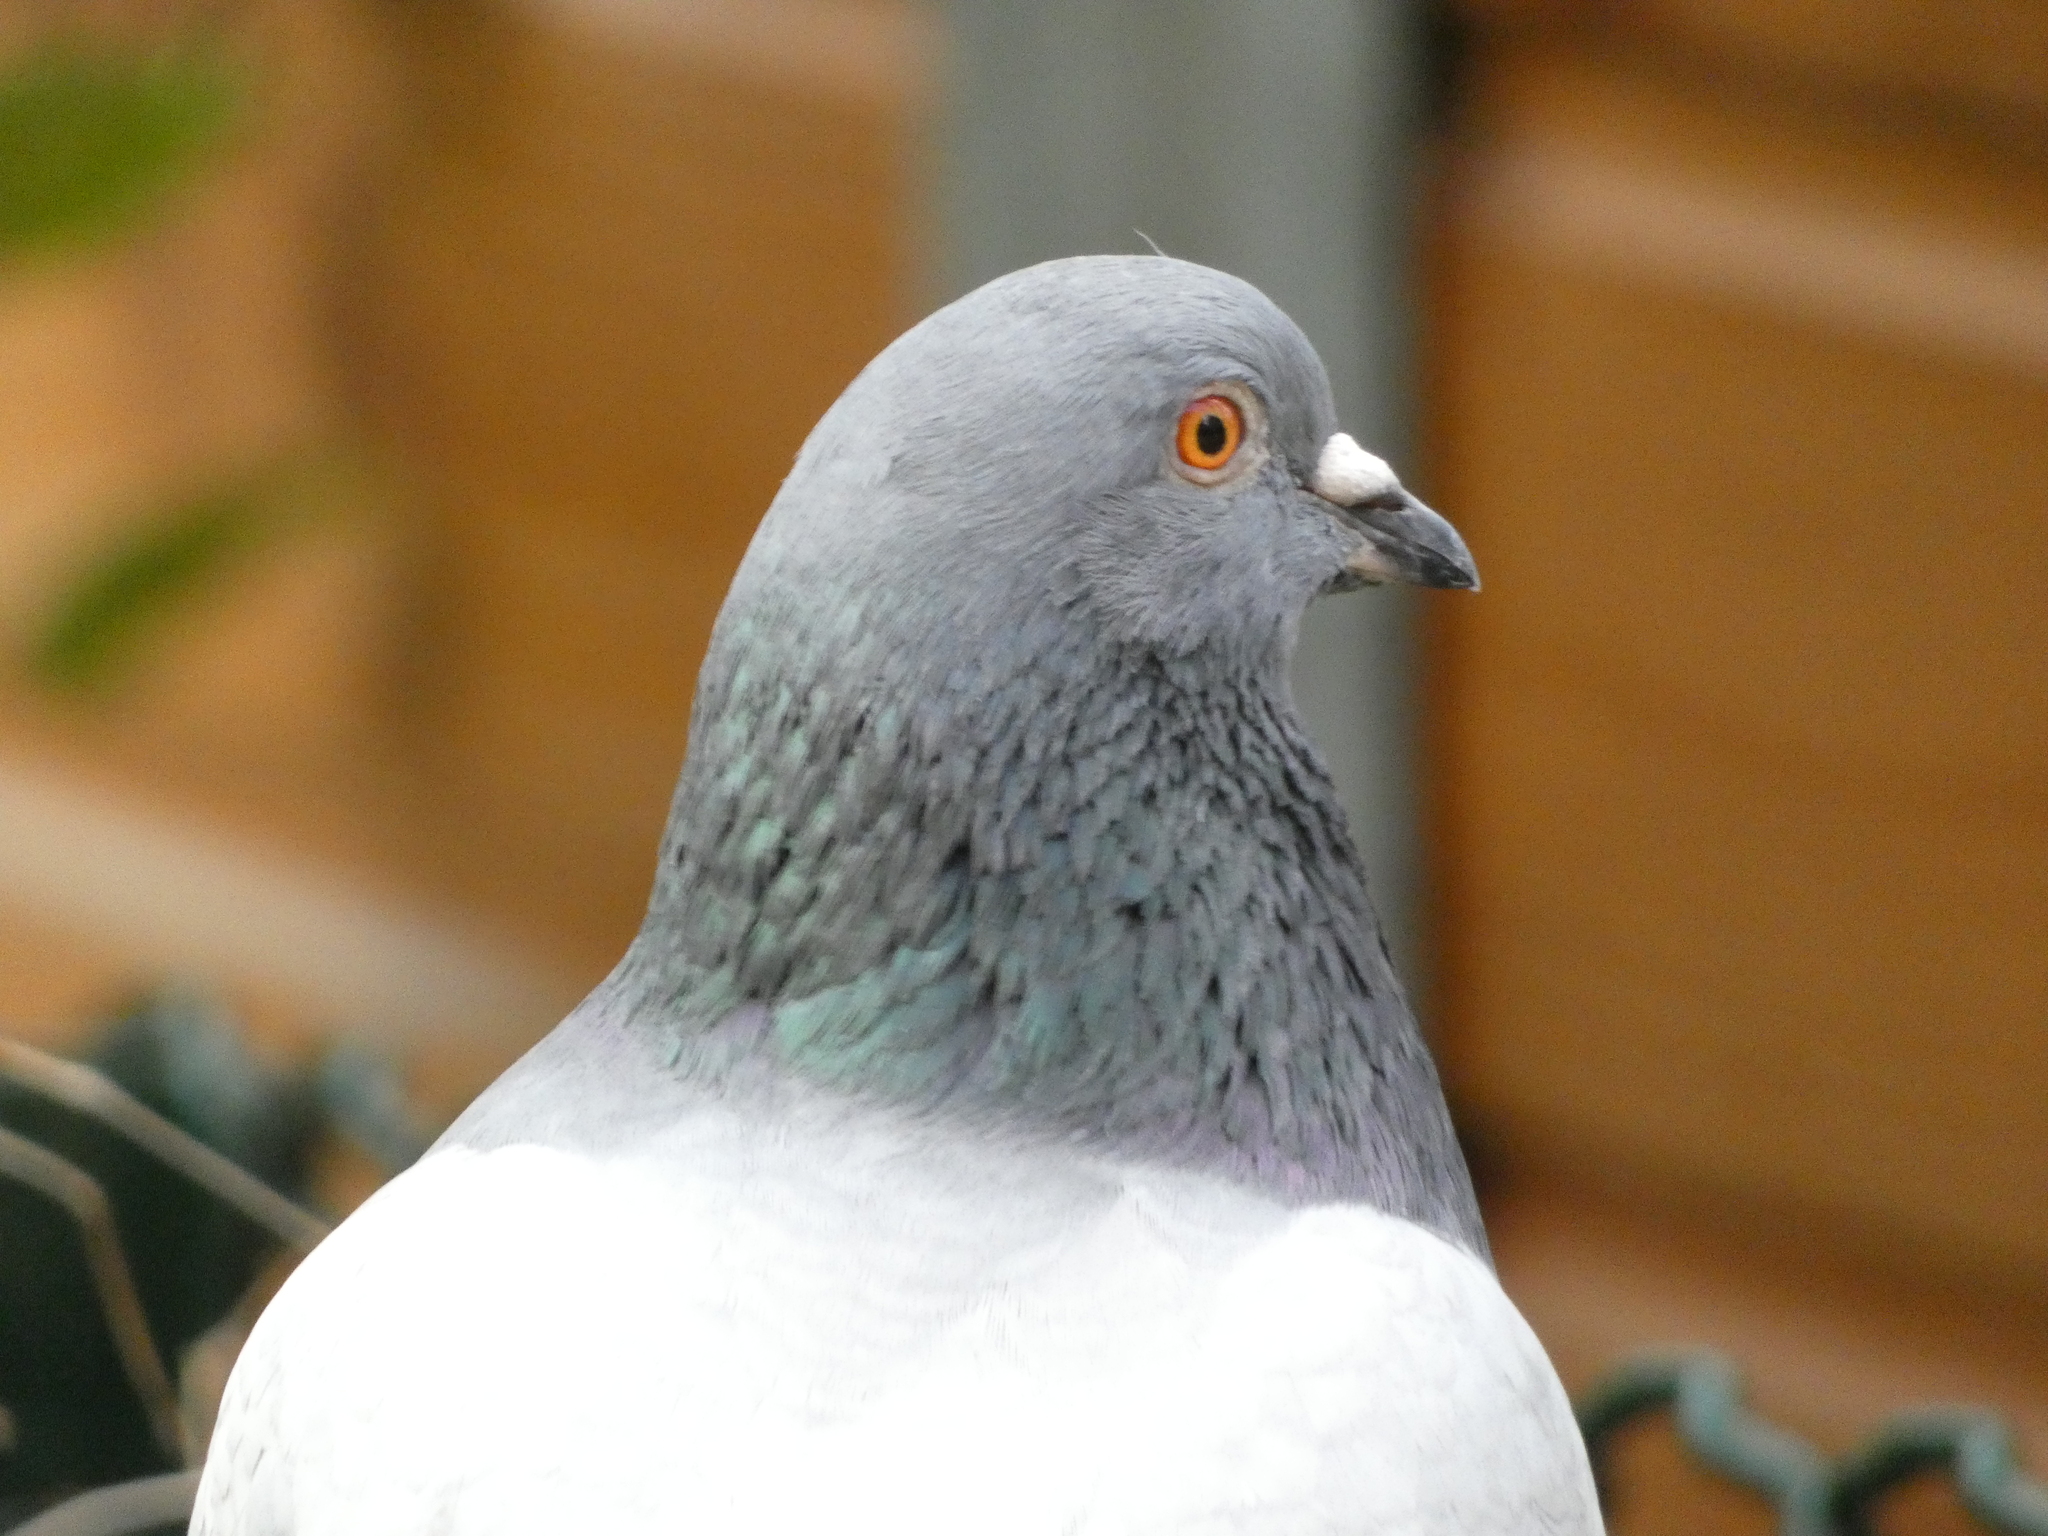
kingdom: Animalia
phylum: Chordata
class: Aves
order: Columbiformes
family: Columbidae
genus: Columba
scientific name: Columba livia
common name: Rock pigeon
